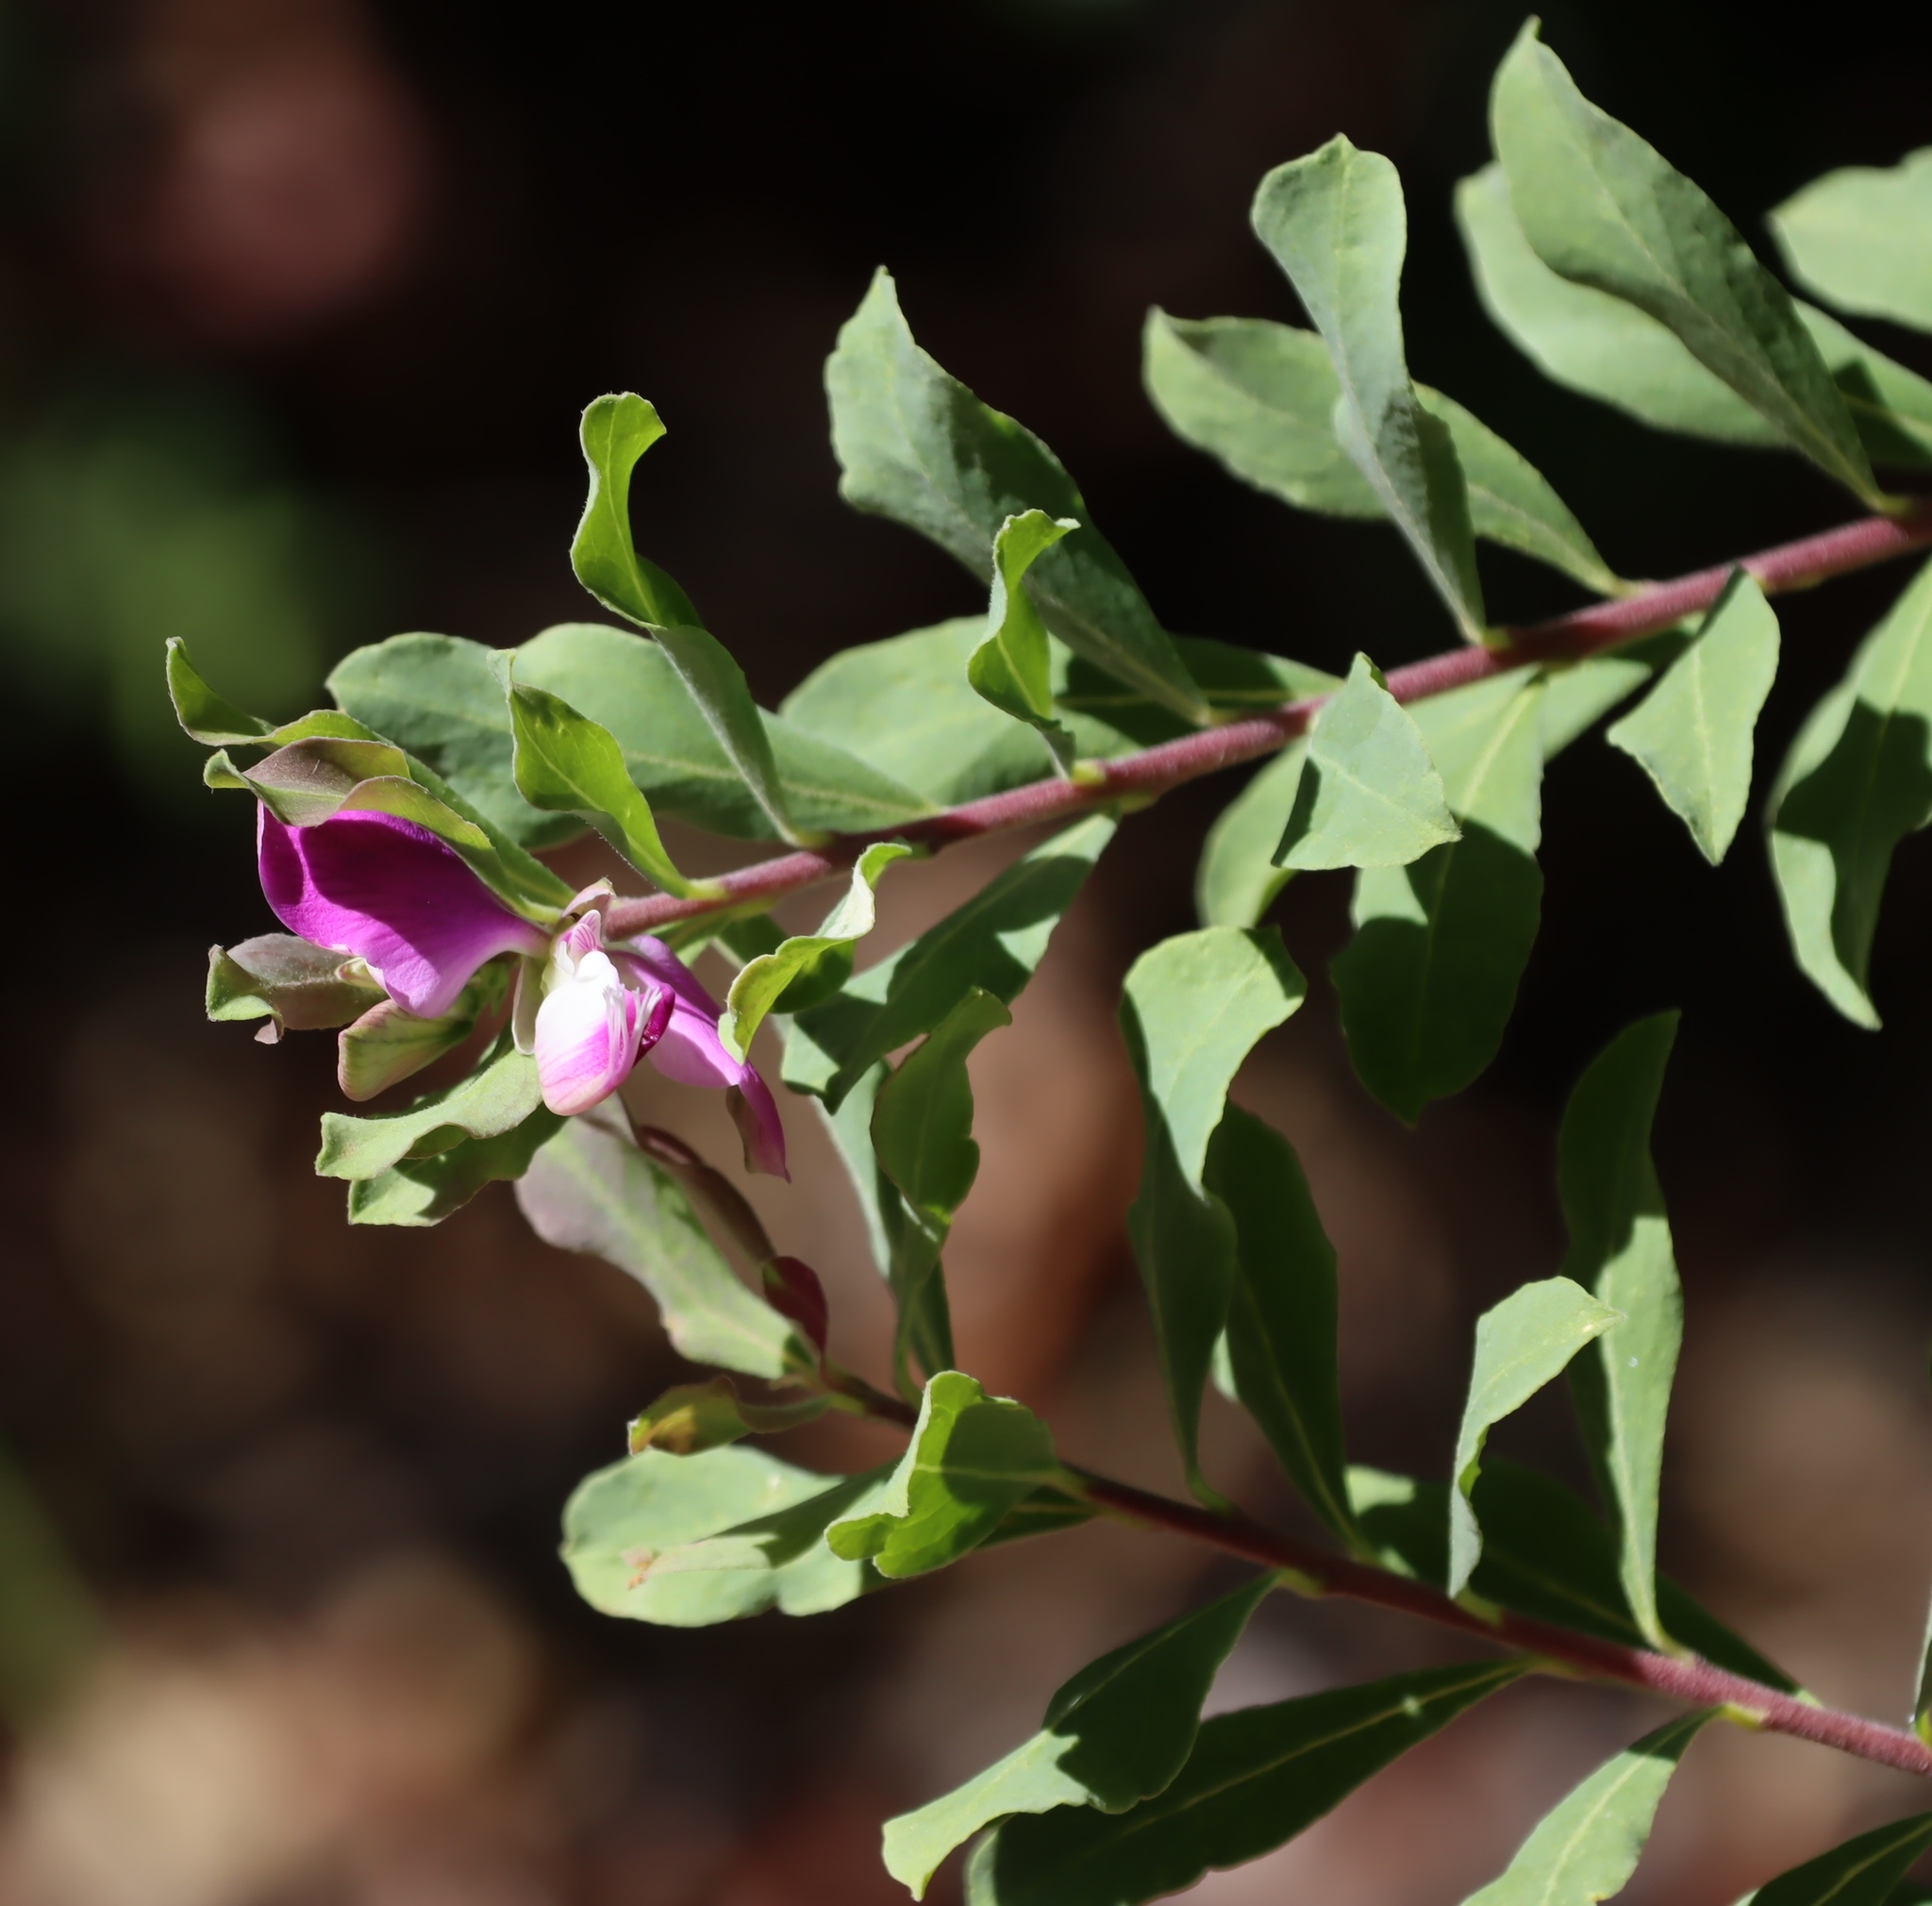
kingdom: Plantae
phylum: Tracheophyta
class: Magnoliopsida
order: Fabales
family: Polygalaceae
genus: Polygala
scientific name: Polygala myrtifolia
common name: Myrtle-leaf milkwort
